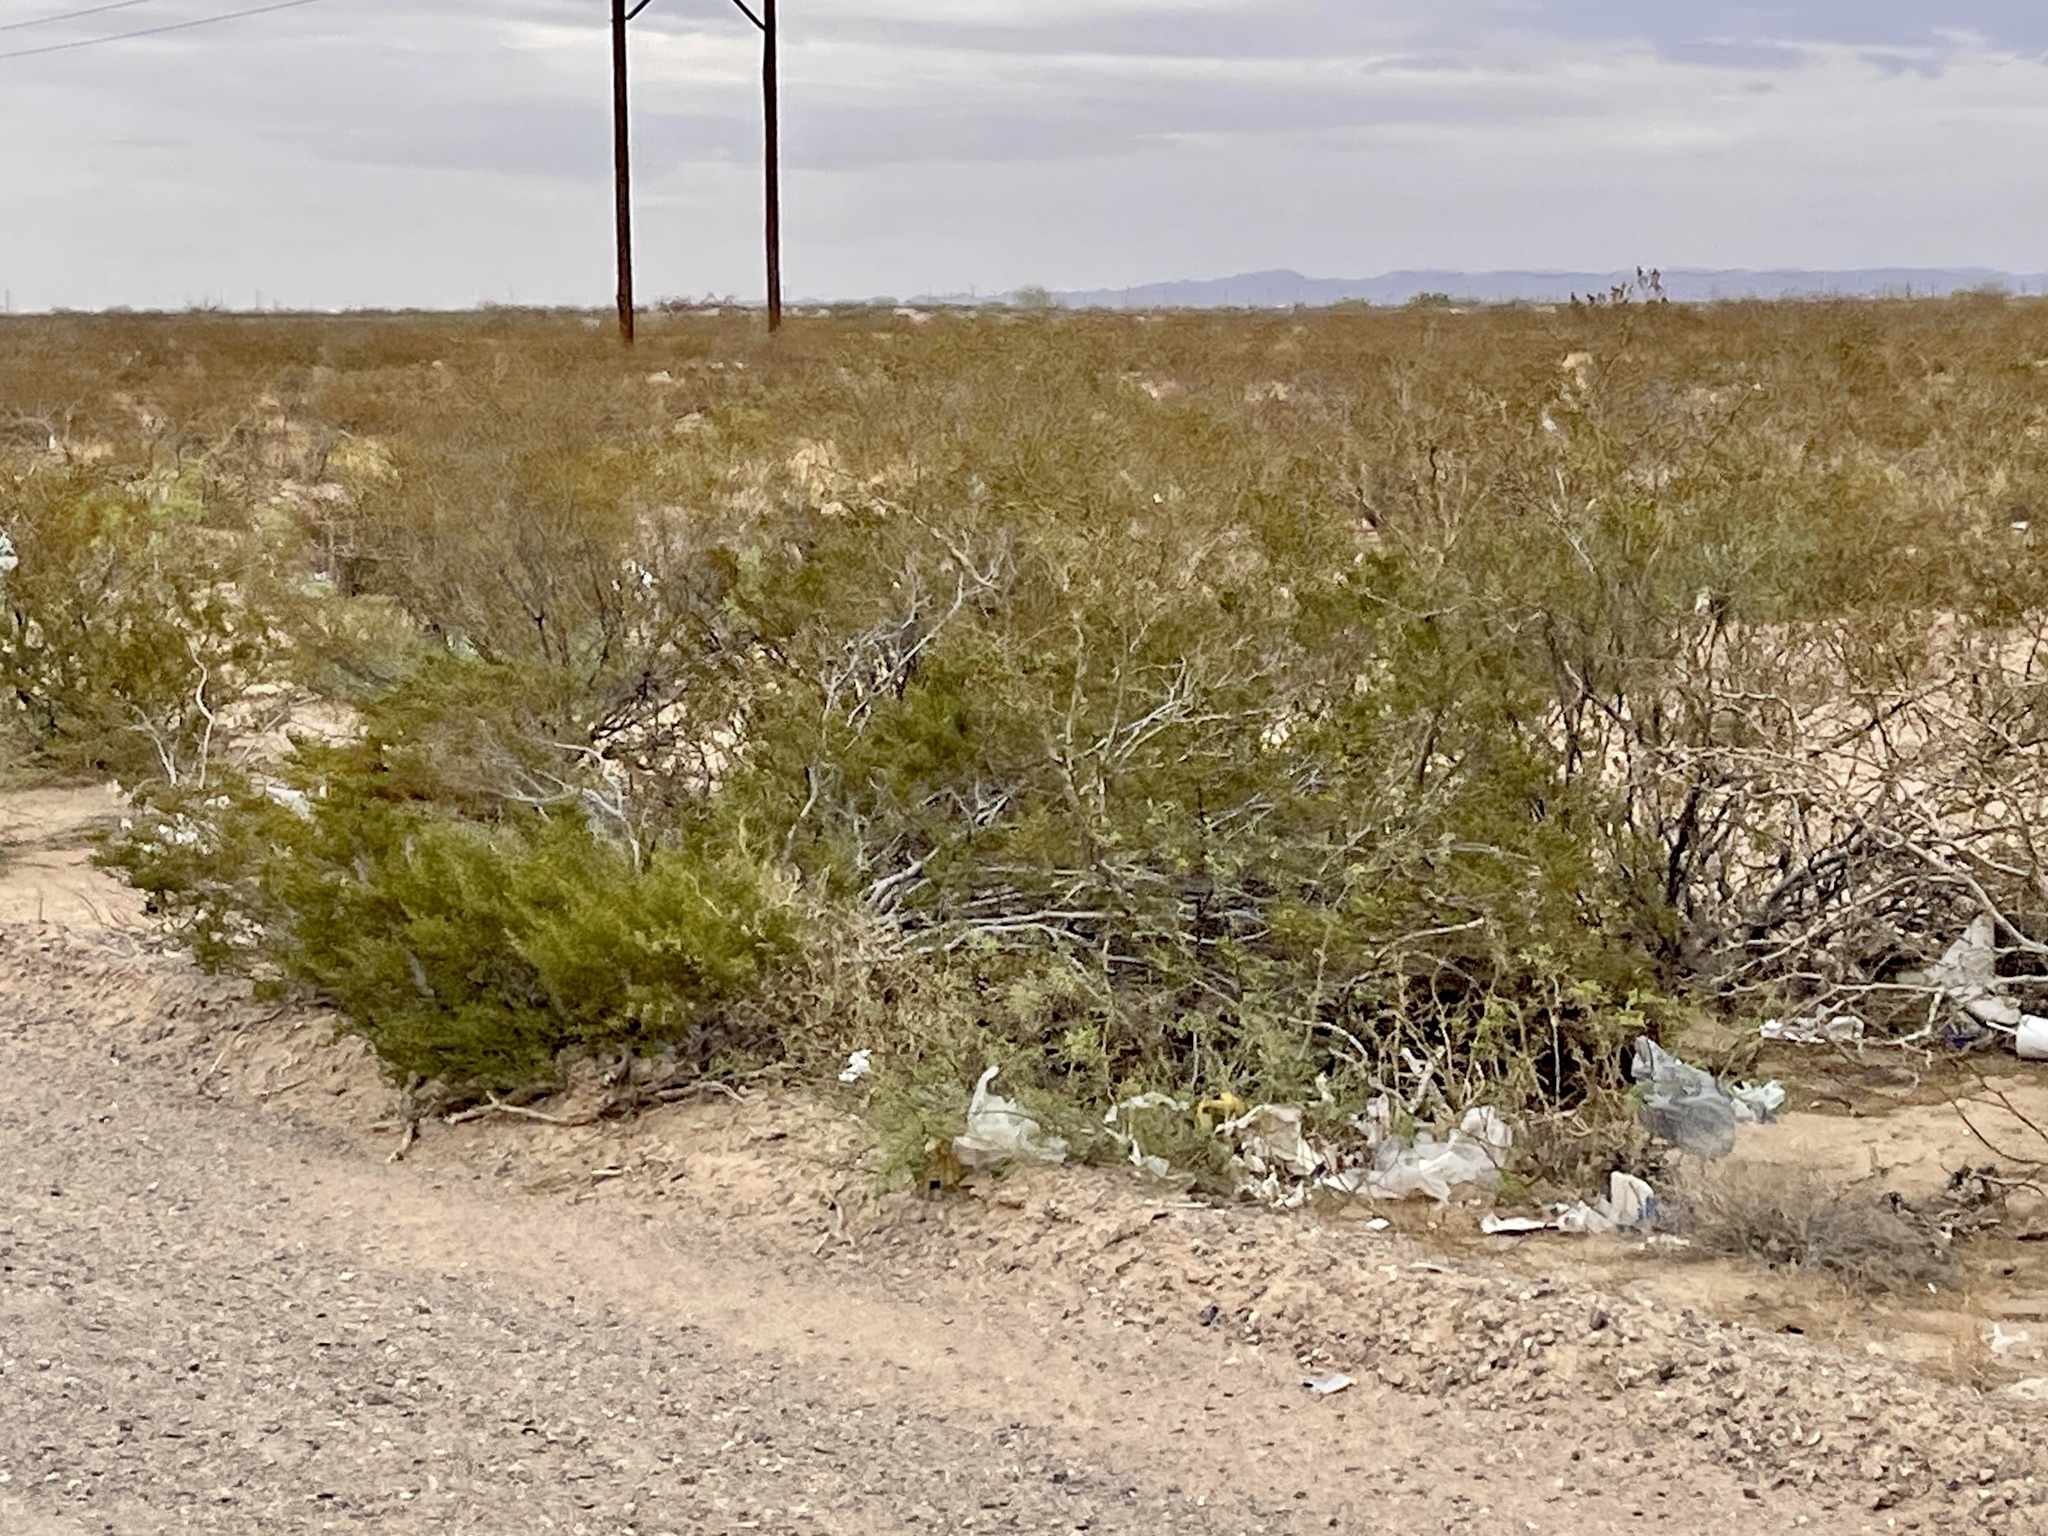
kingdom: Plantae
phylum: Tracheophyta
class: Magnoliopsida
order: Zygophyllales
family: Zygophyllaceae
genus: Larrea
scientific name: Larrea tridentata
